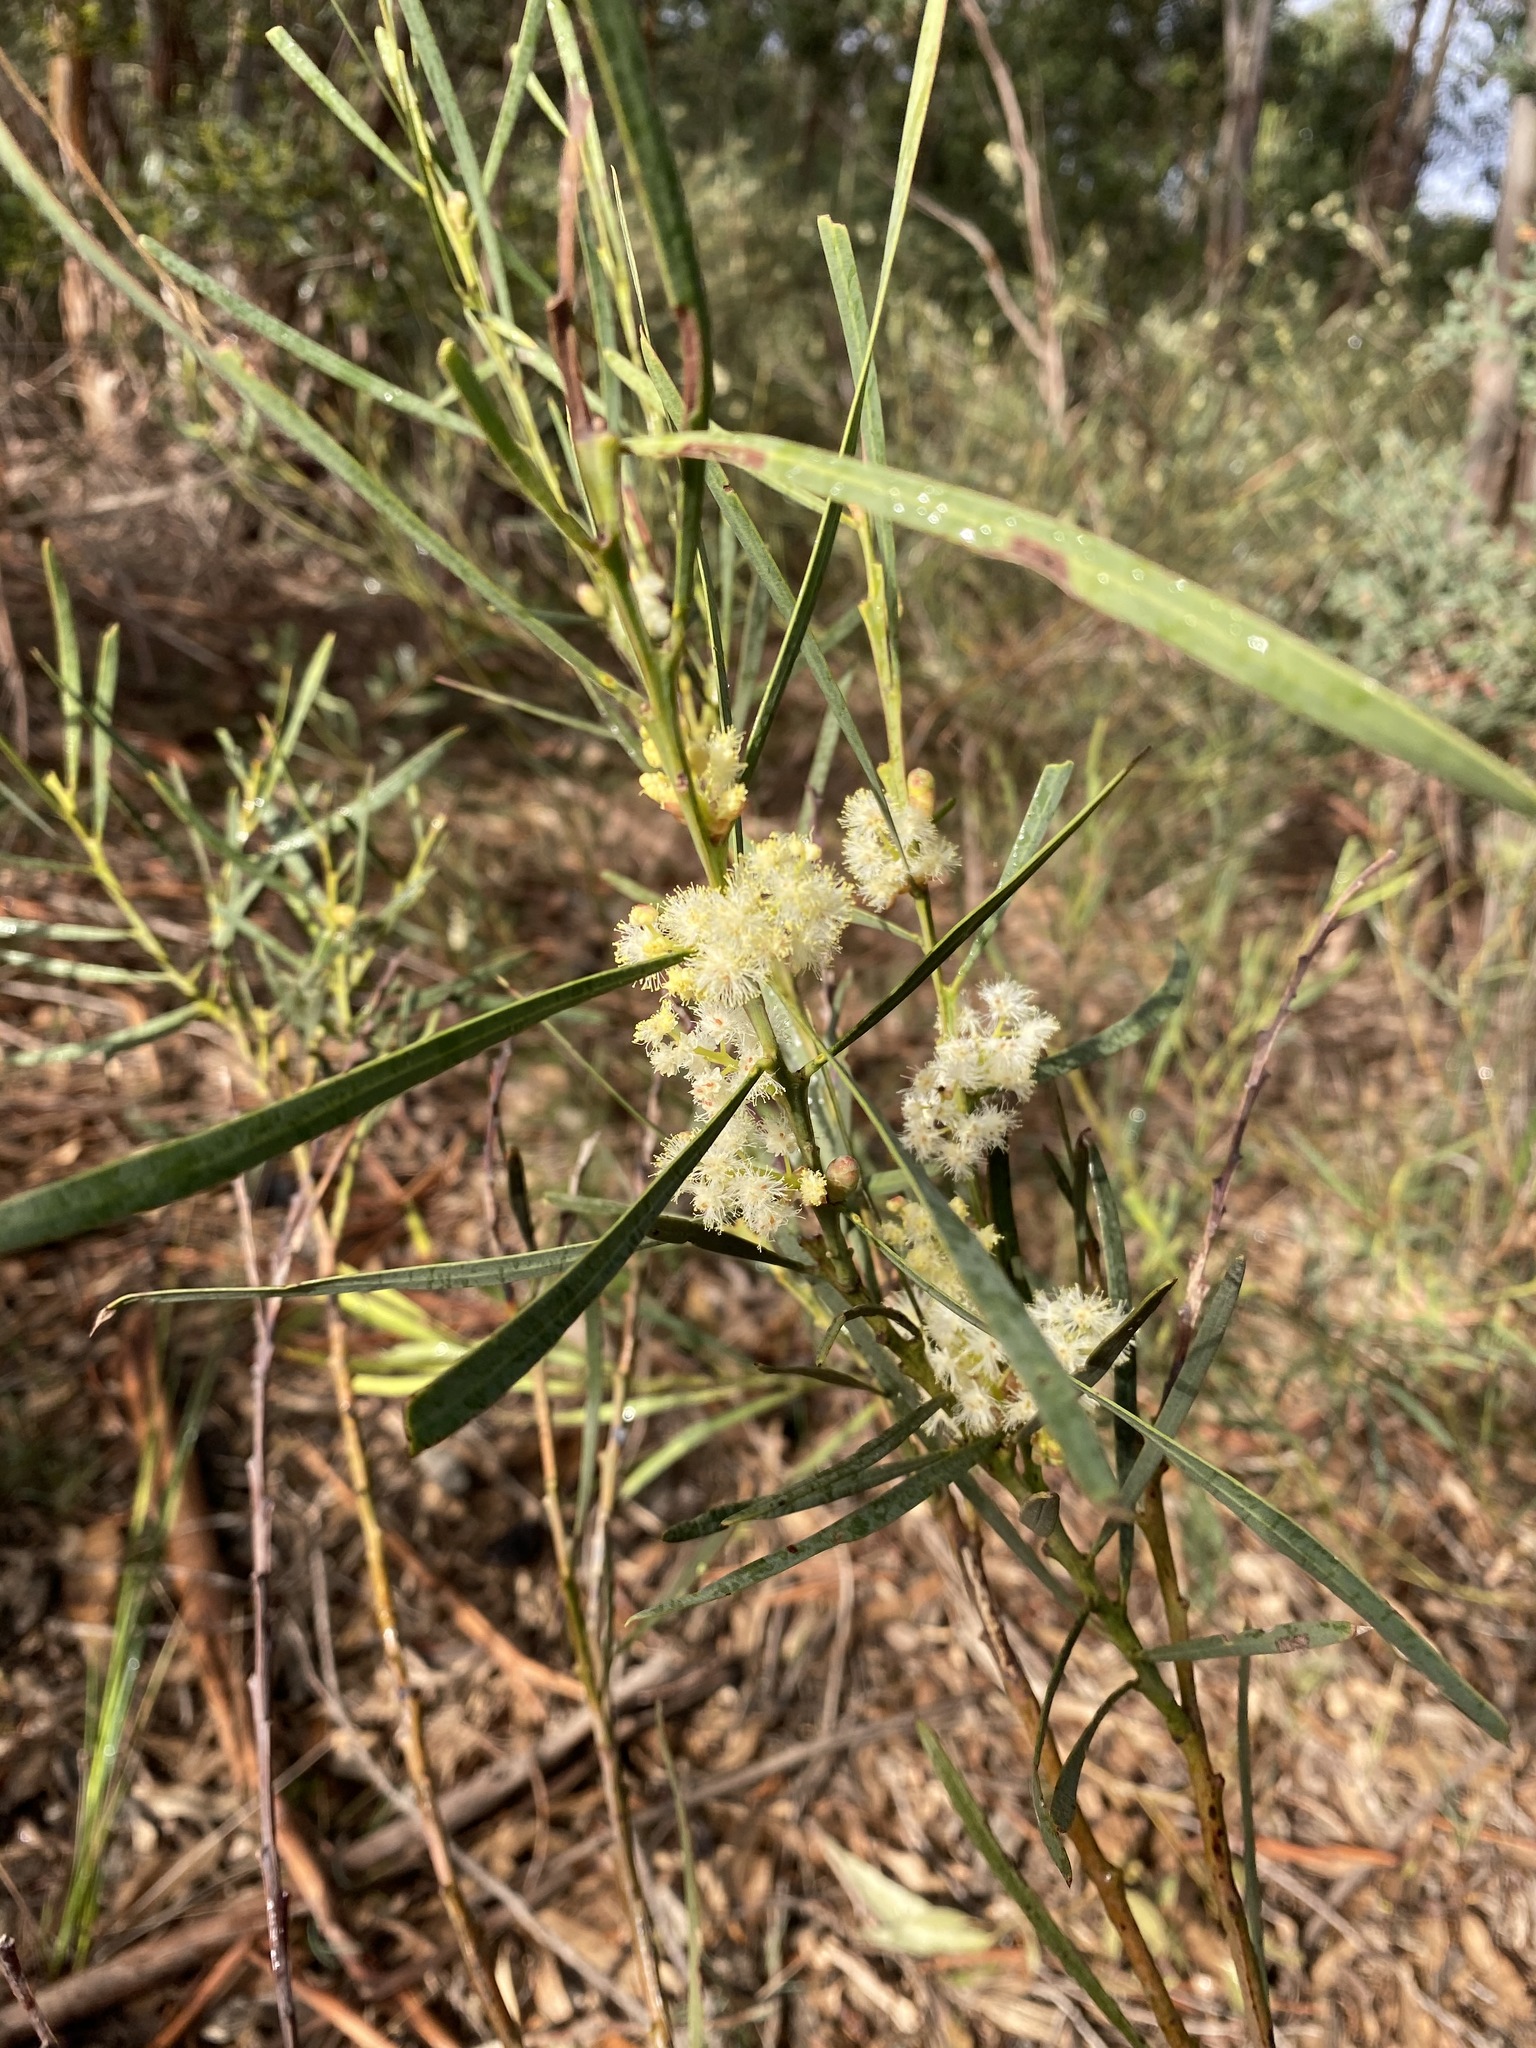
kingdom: Plantae
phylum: Tracheophyta
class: Magnoliopsida
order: Fabales
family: Fabaceae
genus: Acacia
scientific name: Acacia suaveolens
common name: Sweet acacia
